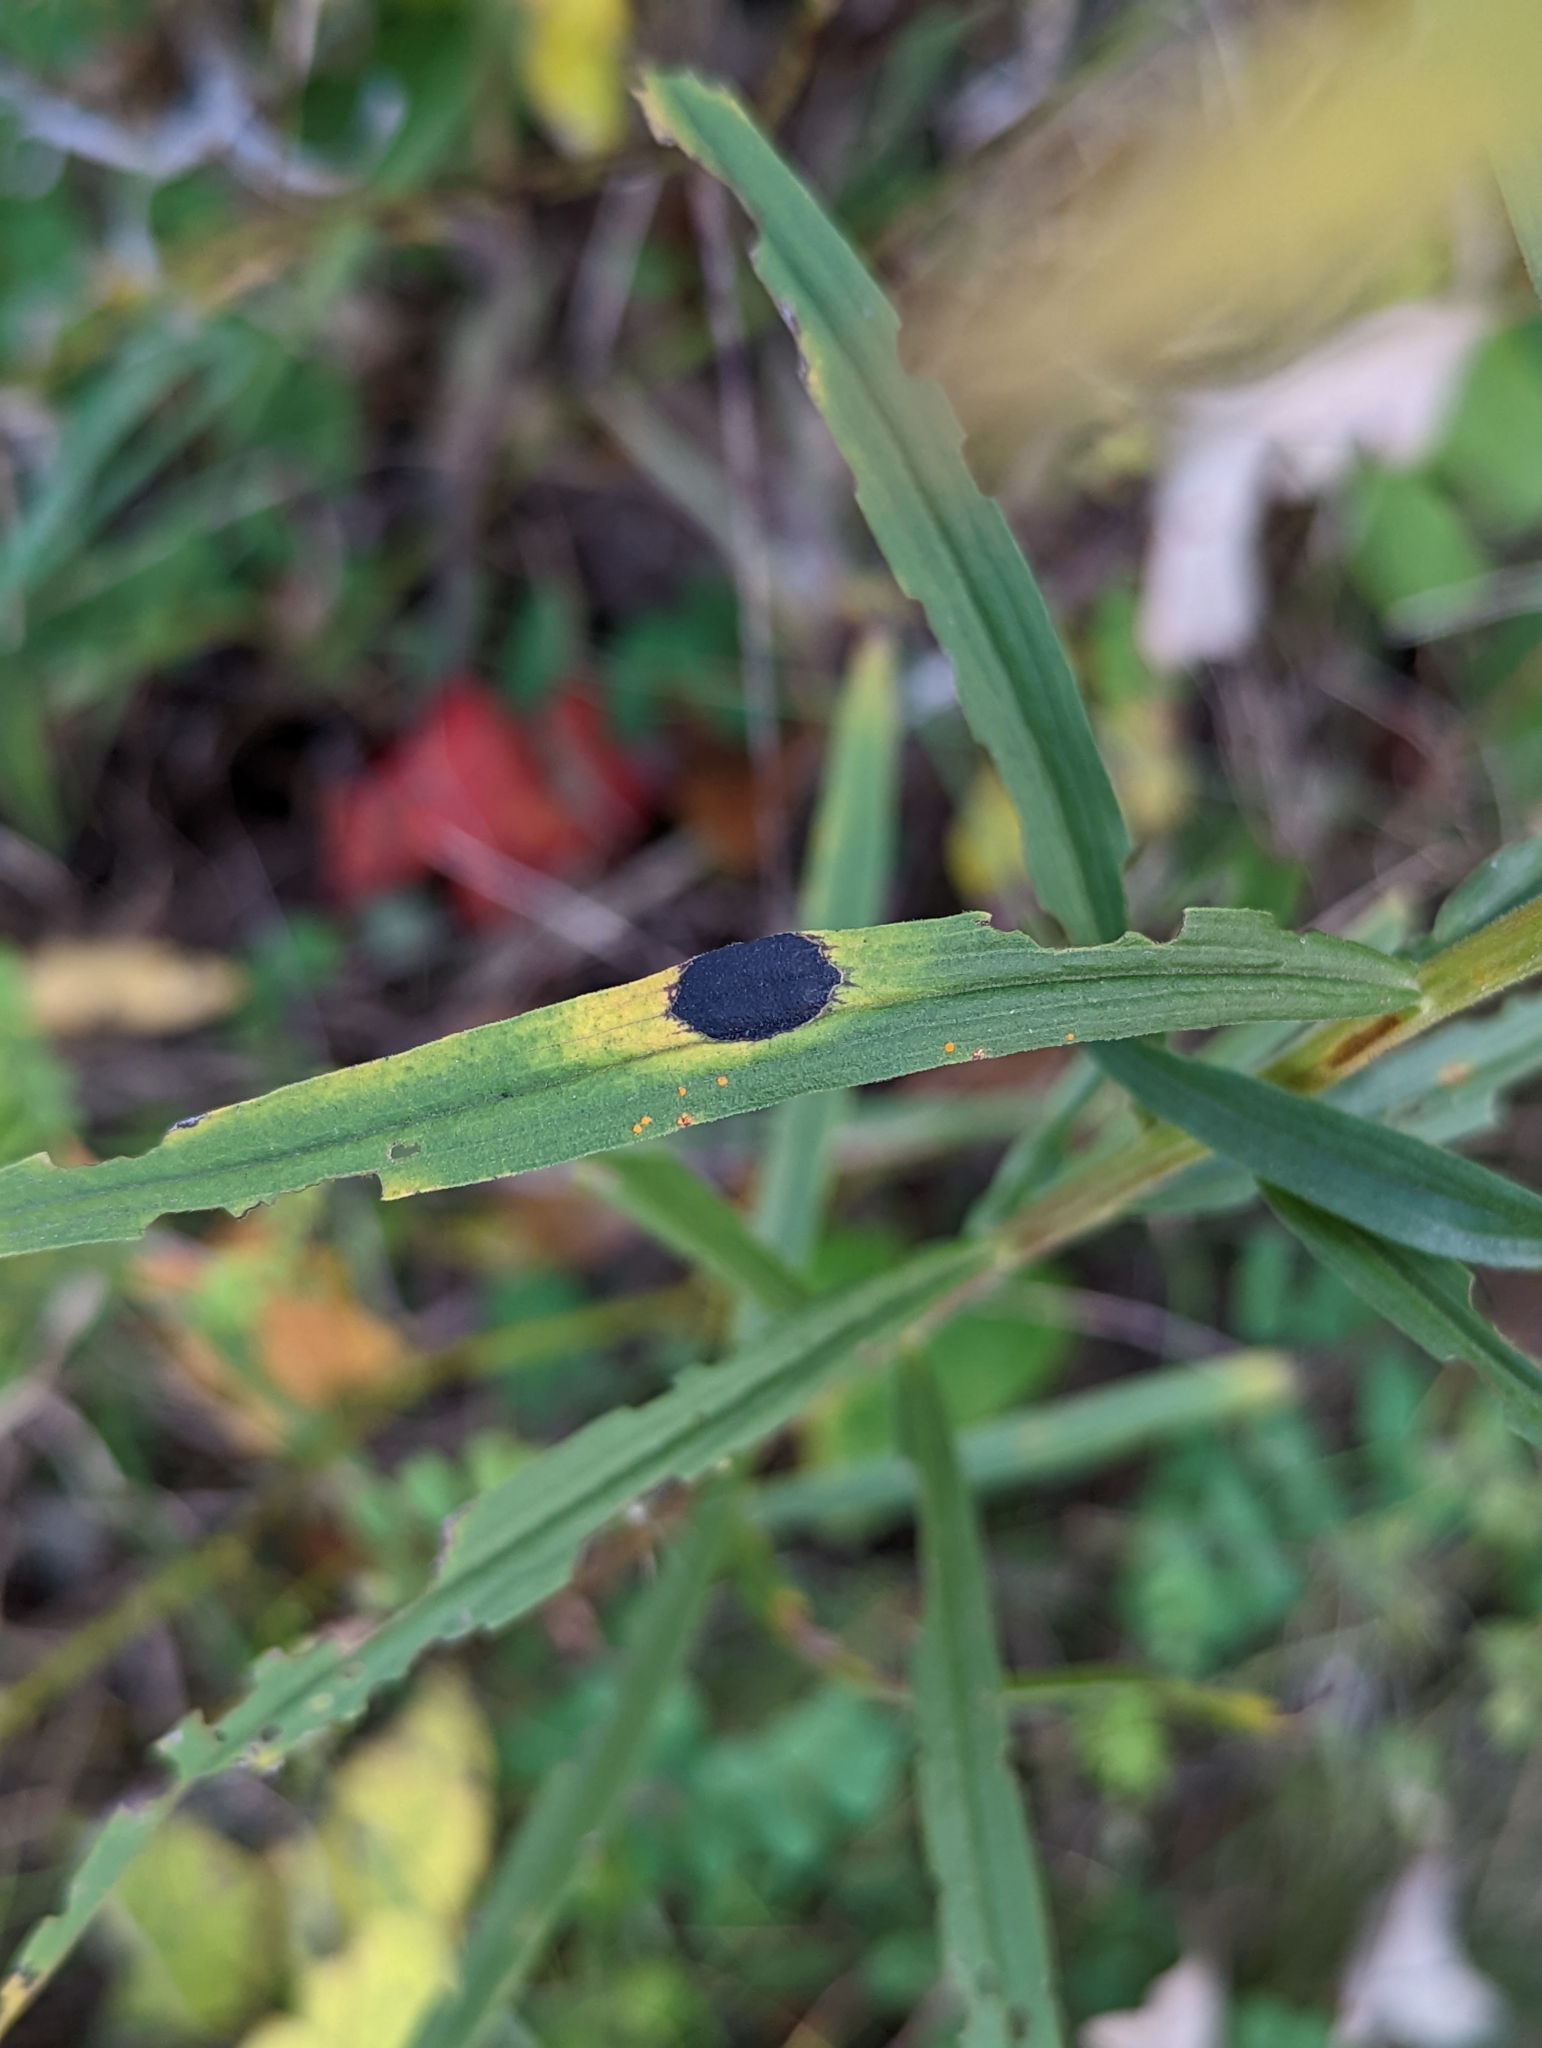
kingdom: Animalia
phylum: Arthropoda
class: Insecta
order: Diptera
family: Cecidomyiidae
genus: Asteromyia
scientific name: Asteromyia euthamiae
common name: Euthamia leaf gall midge
